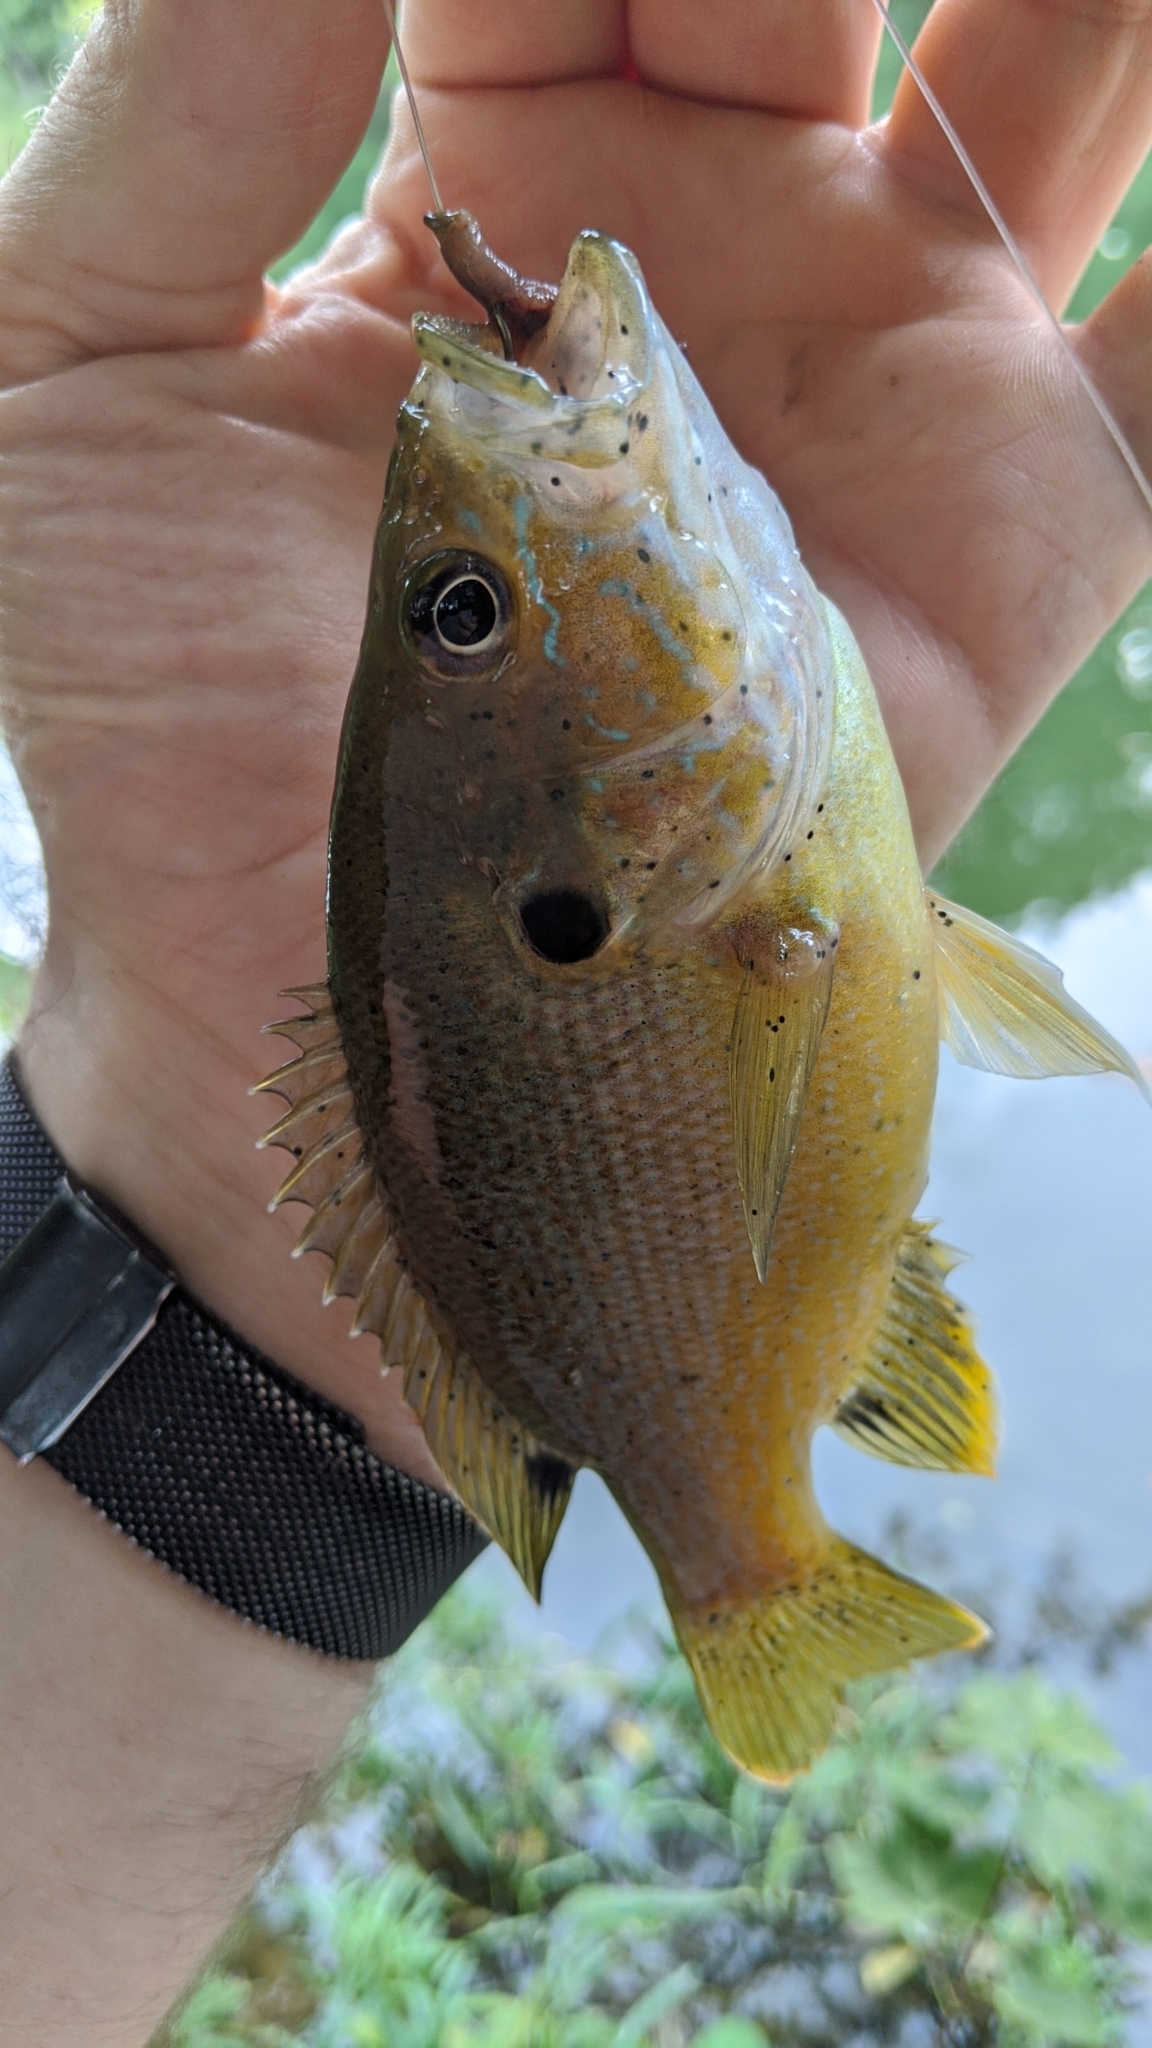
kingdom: Animalia
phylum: Chordata
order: Perciformes
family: Centrarchidae
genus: Lepomis
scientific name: Lepomis cyanellus
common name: Green sunfish
